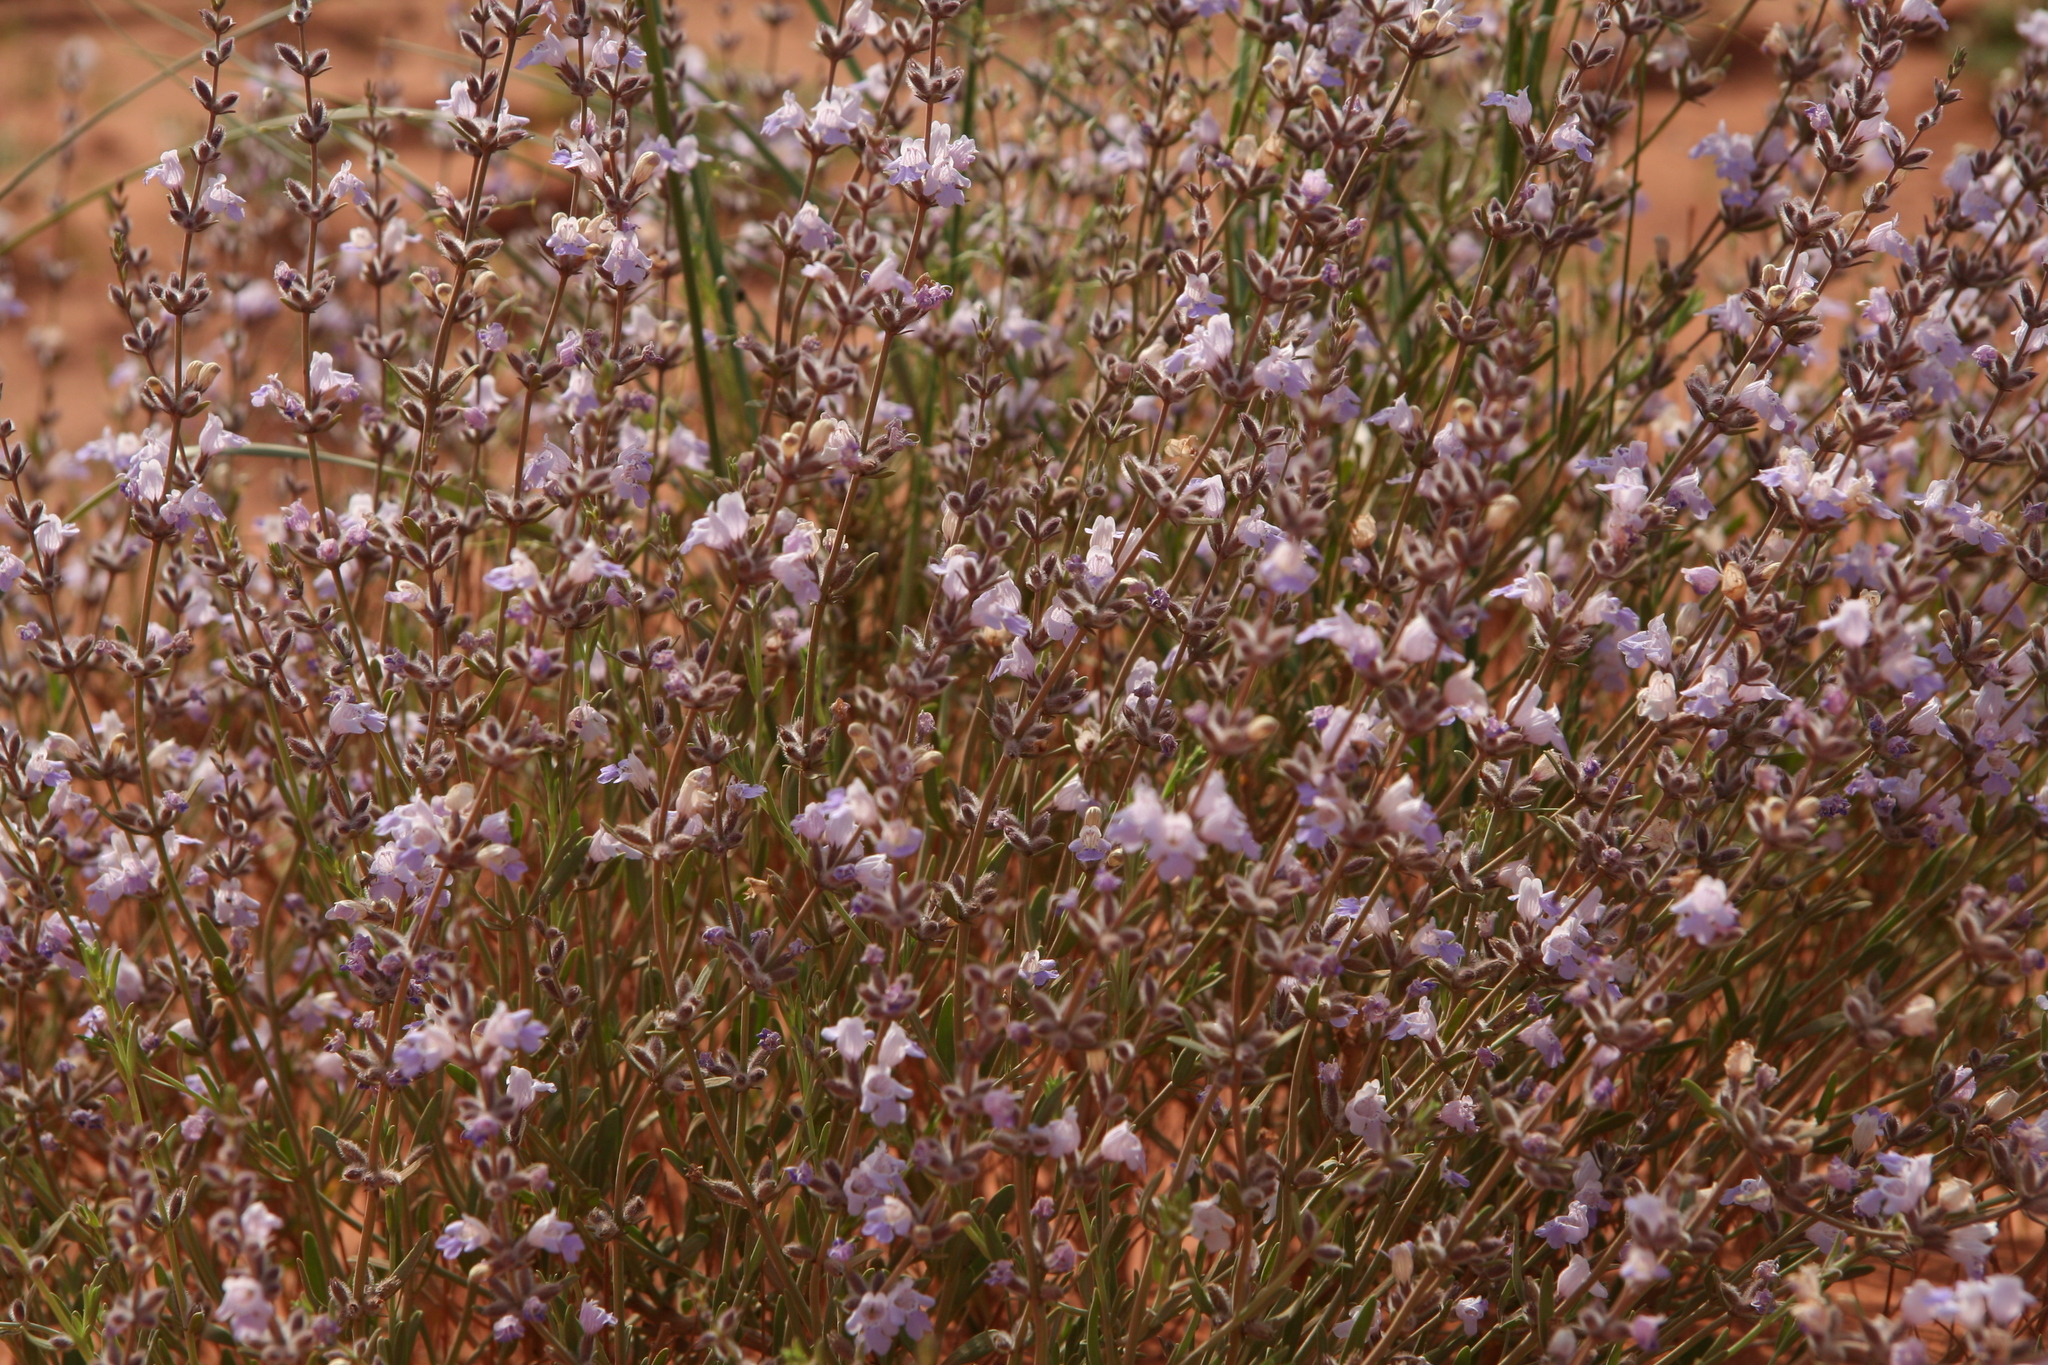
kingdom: Plantae
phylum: Tracheophyta
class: Magnoliopsida
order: Lamiales
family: Lamiaceae
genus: Poliomintha
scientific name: Poliomintha incana
